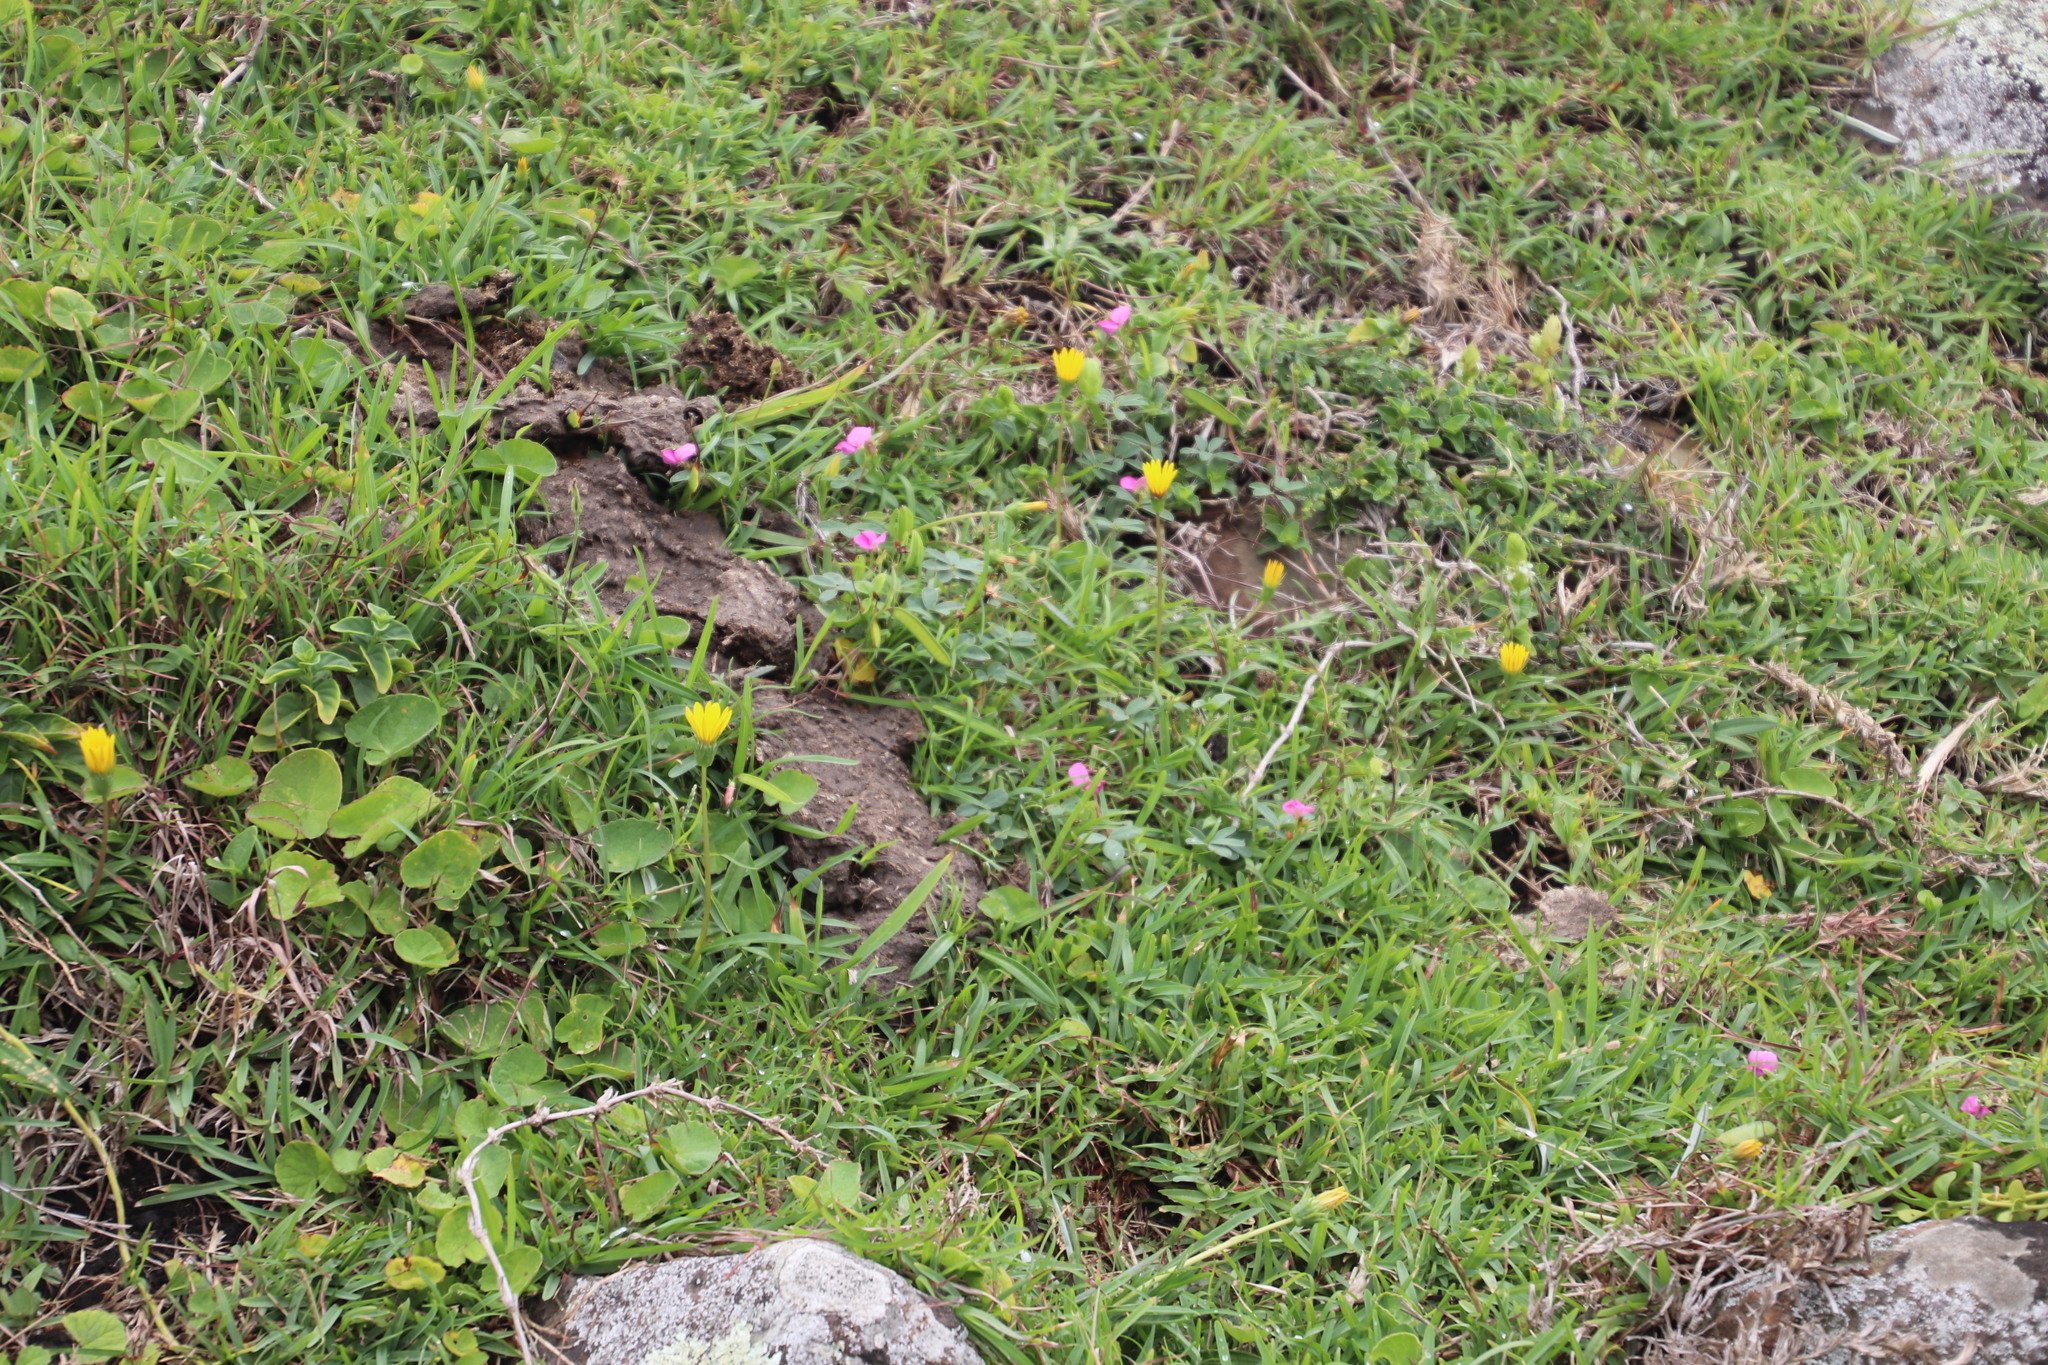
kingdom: Plantae
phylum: Tracheophyta
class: Magnoliopsida
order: Asterales
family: Asteraceae
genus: Gazania
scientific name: Gazania rigens
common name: Treasureflower
